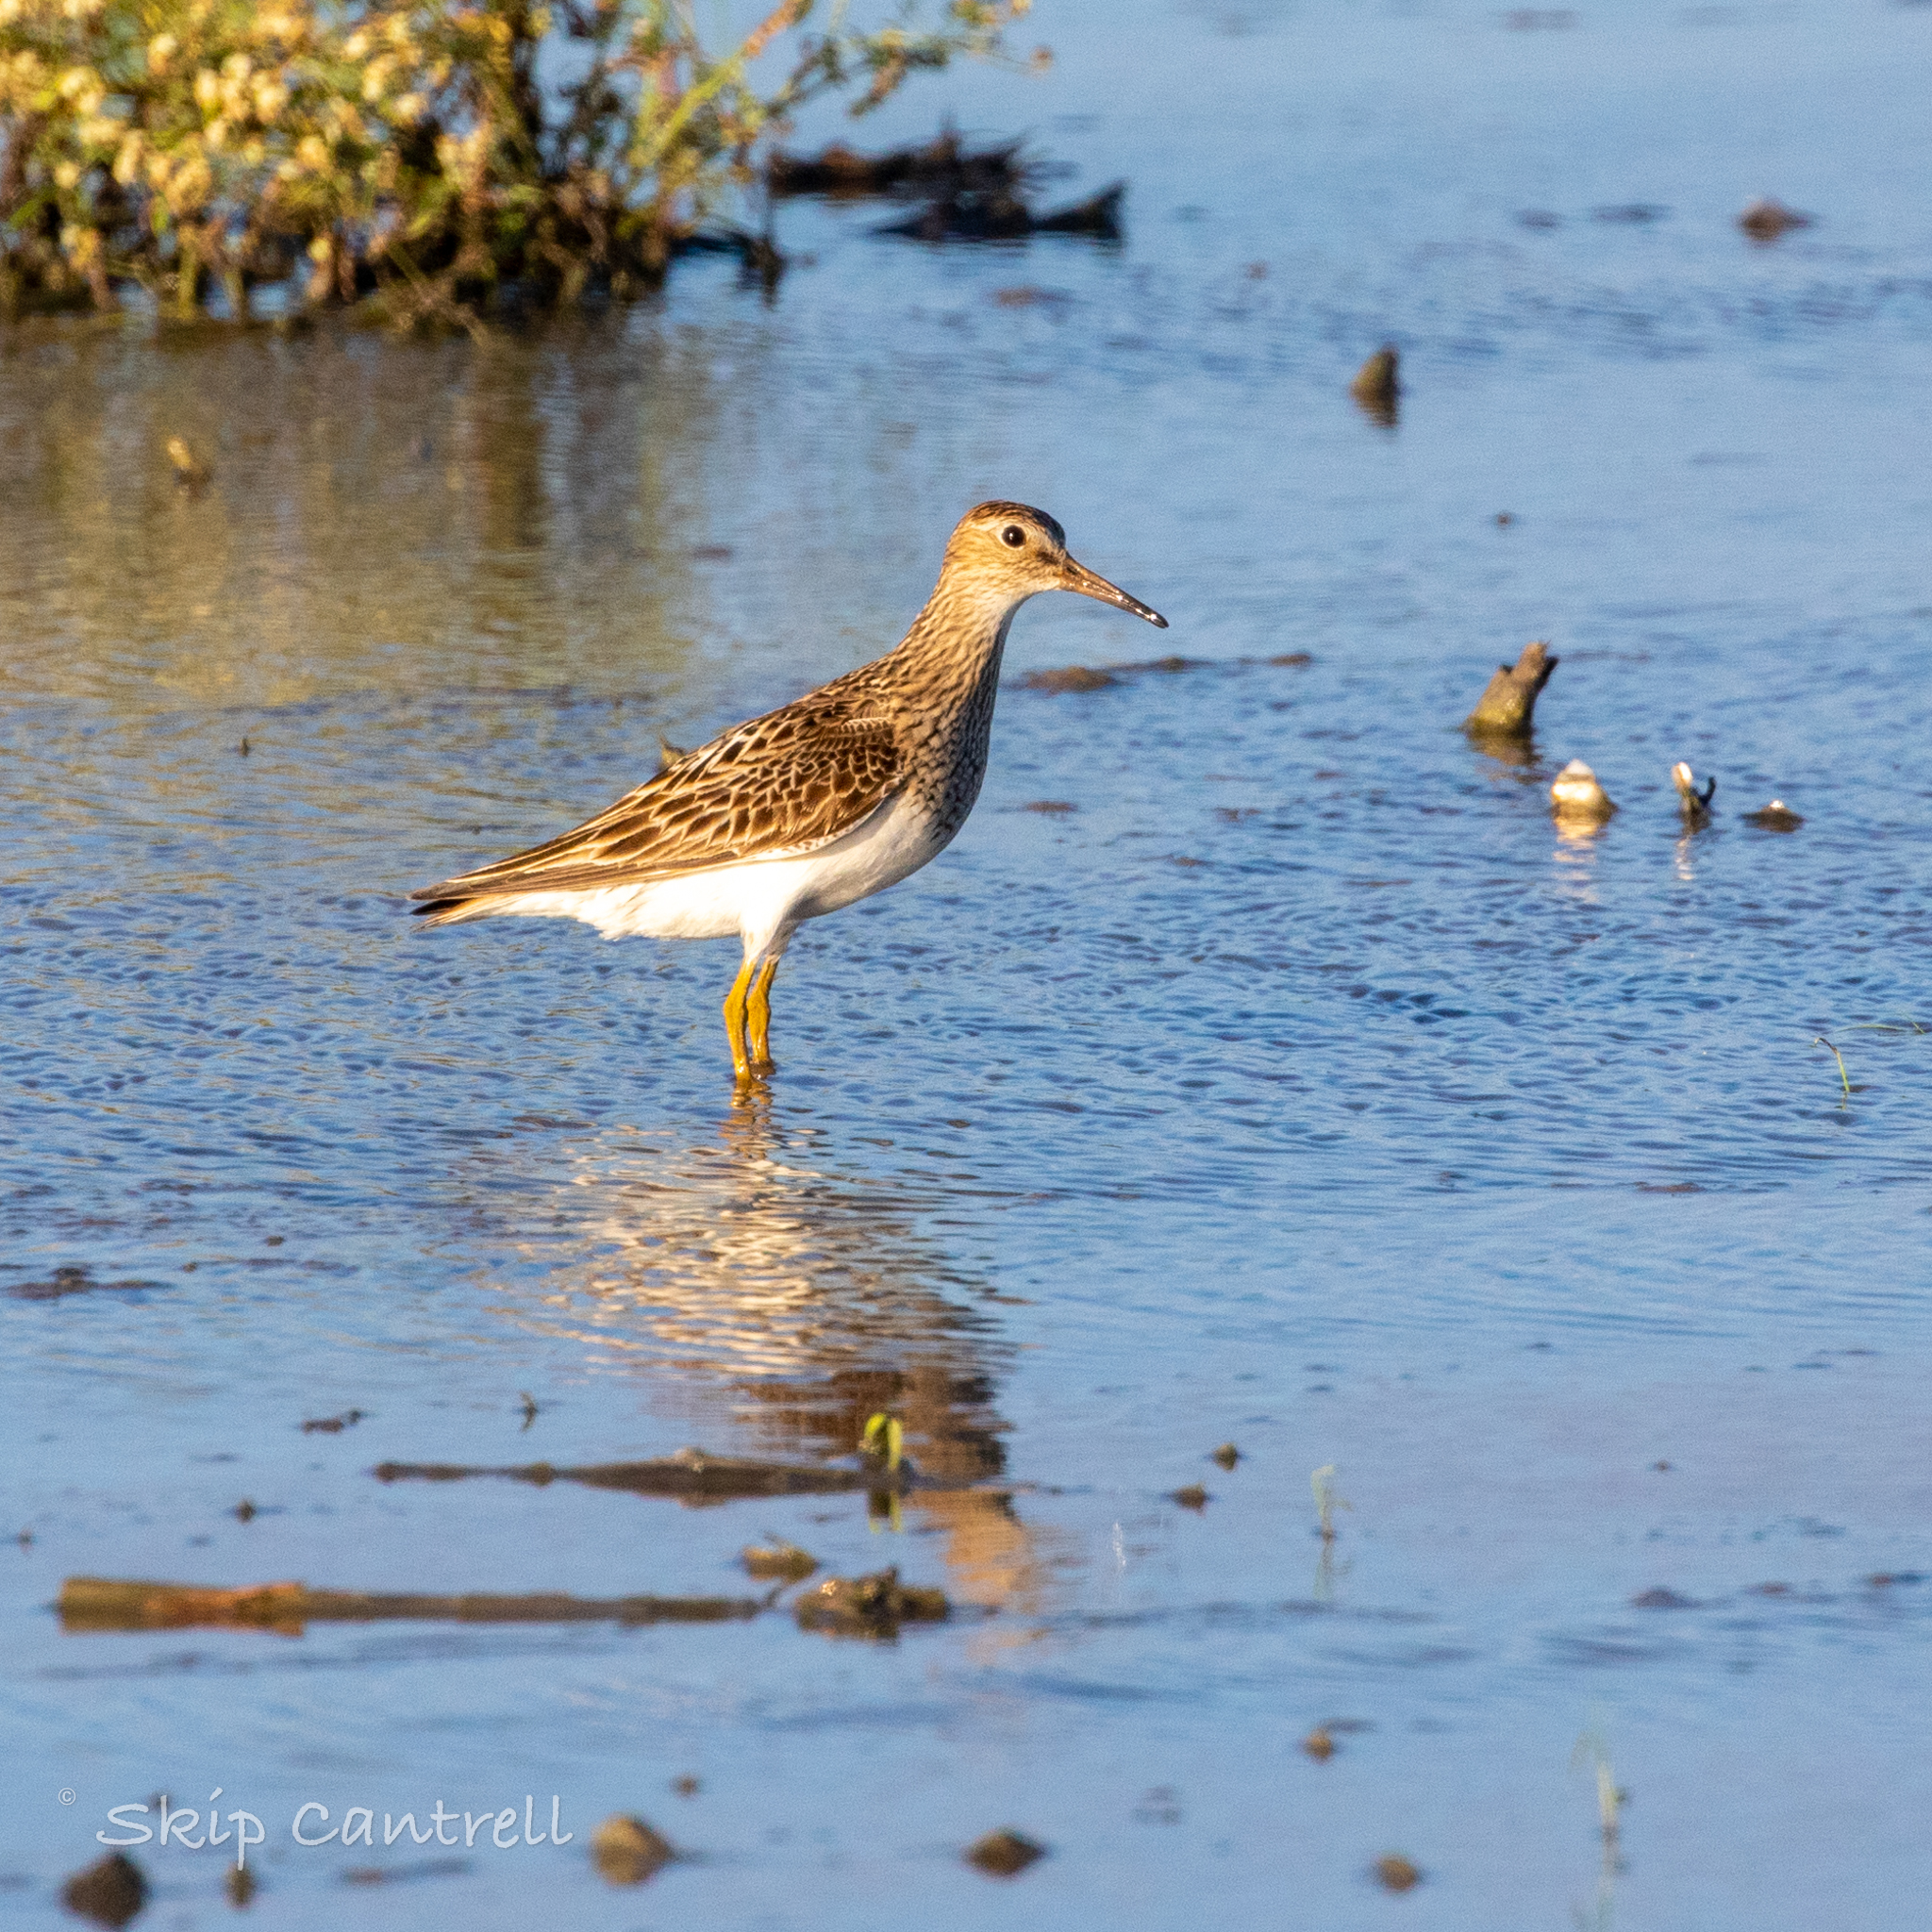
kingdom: Animalia
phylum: Chordata
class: Aves
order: Charadriiformes
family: Scolopacidae
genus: Calidris
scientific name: Calidris melanotos
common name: Pectoral sandpiper
